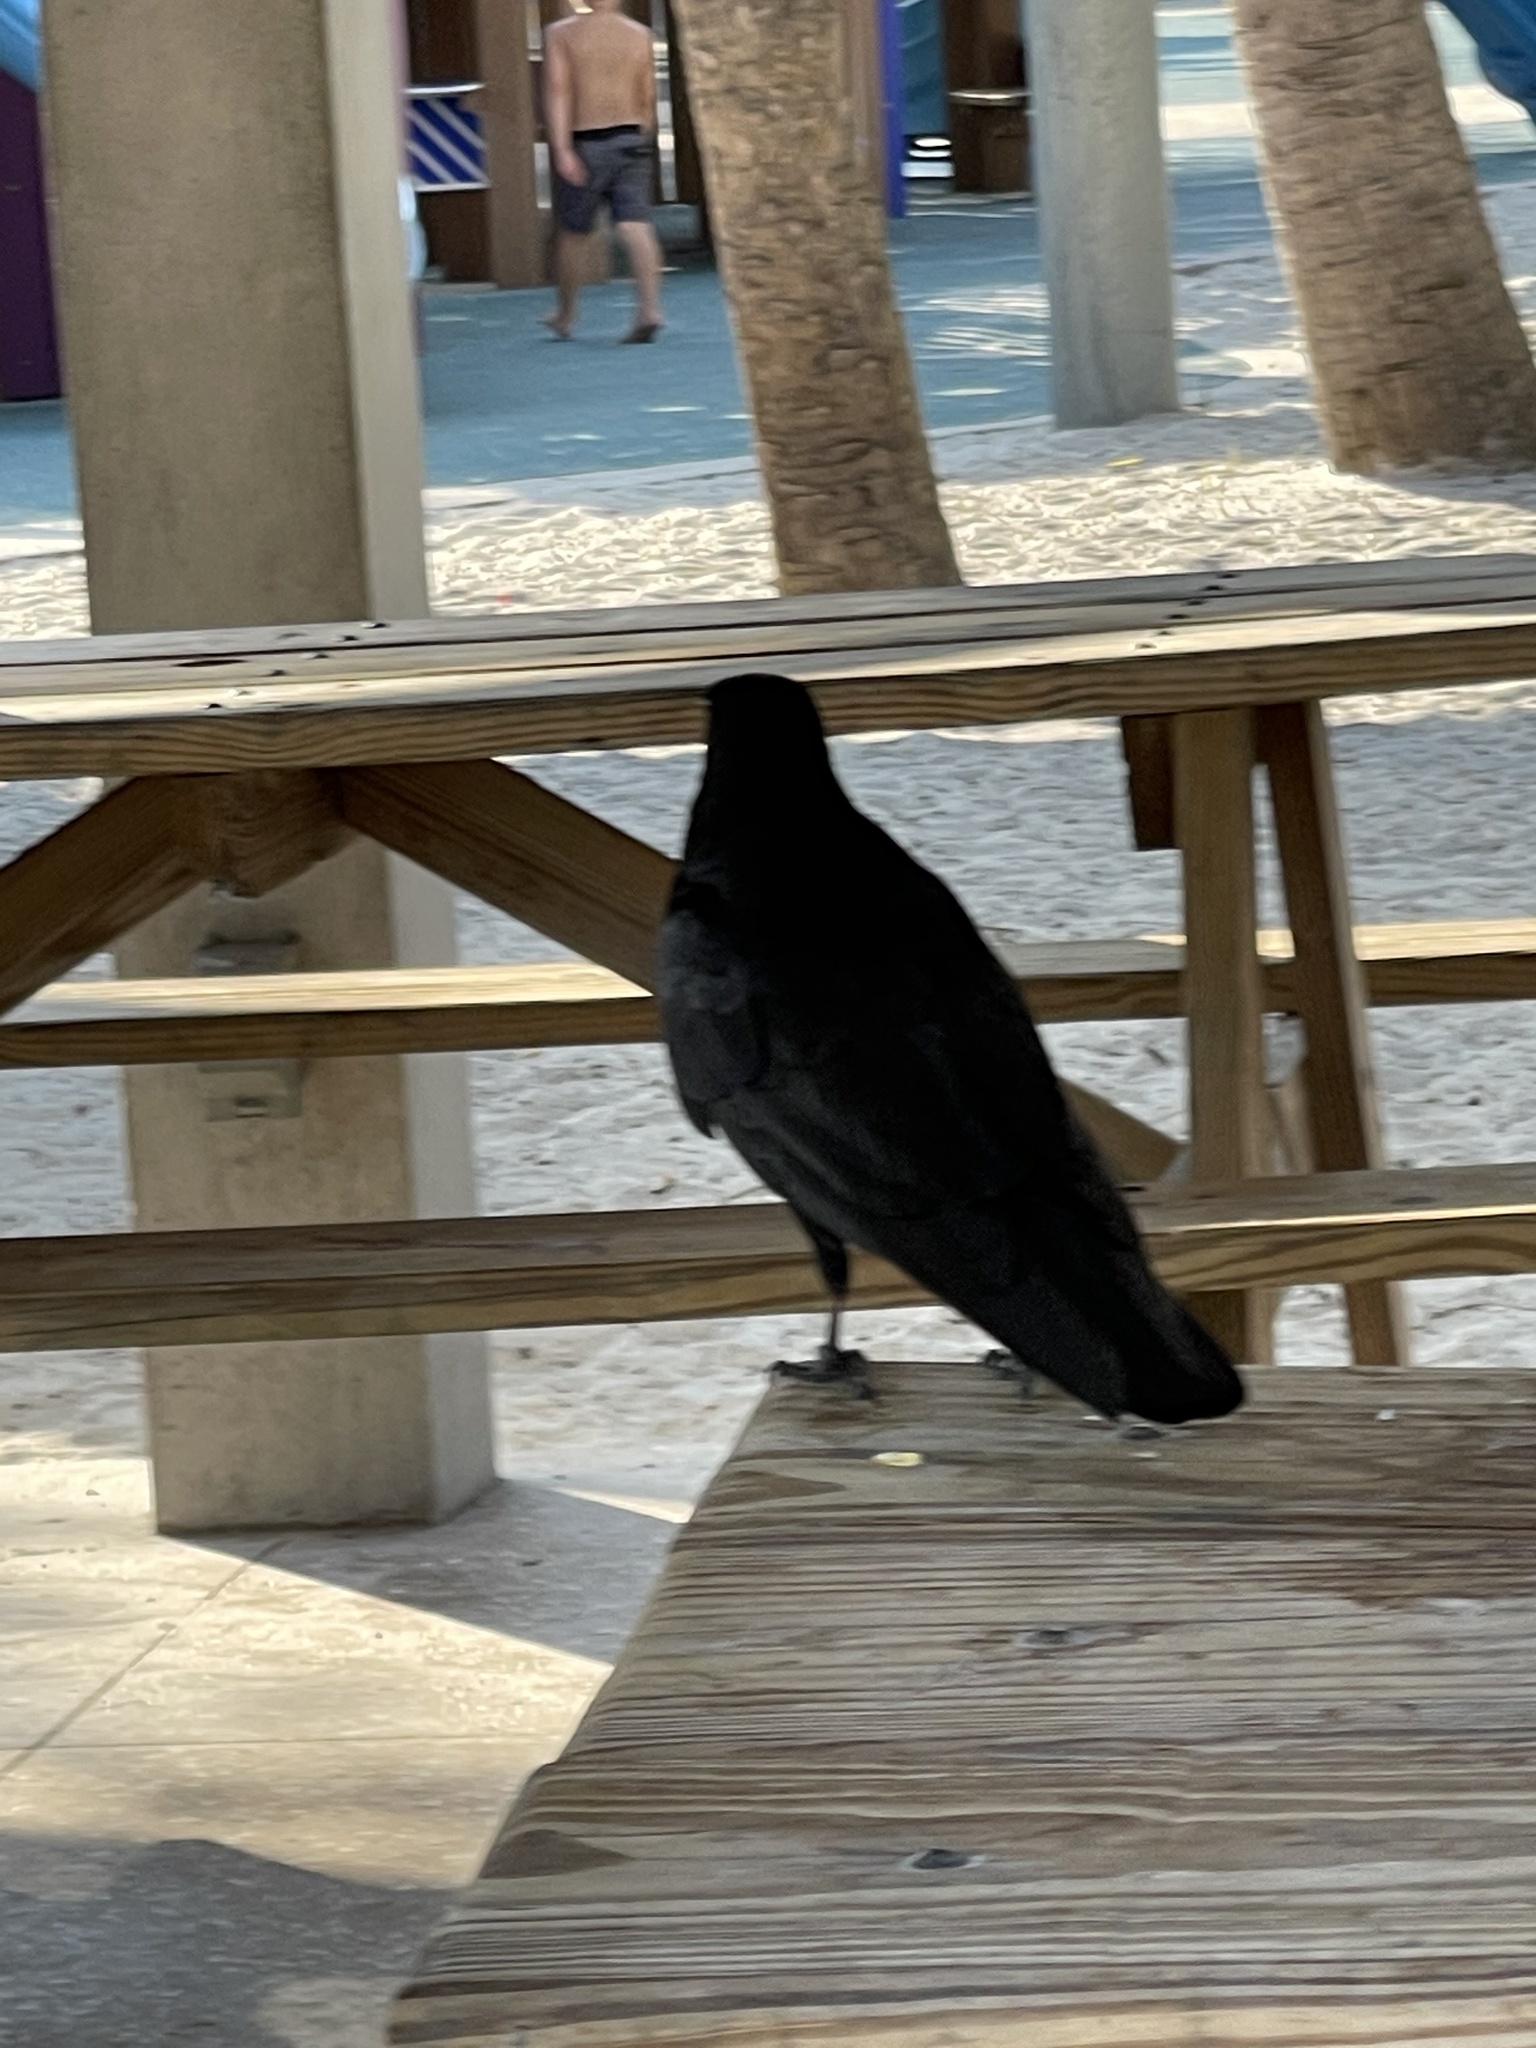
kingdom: Animalia
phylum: Chordata
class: Aves
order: Passeriformes
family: Corvidae
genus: Corvus
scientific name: Corvus
